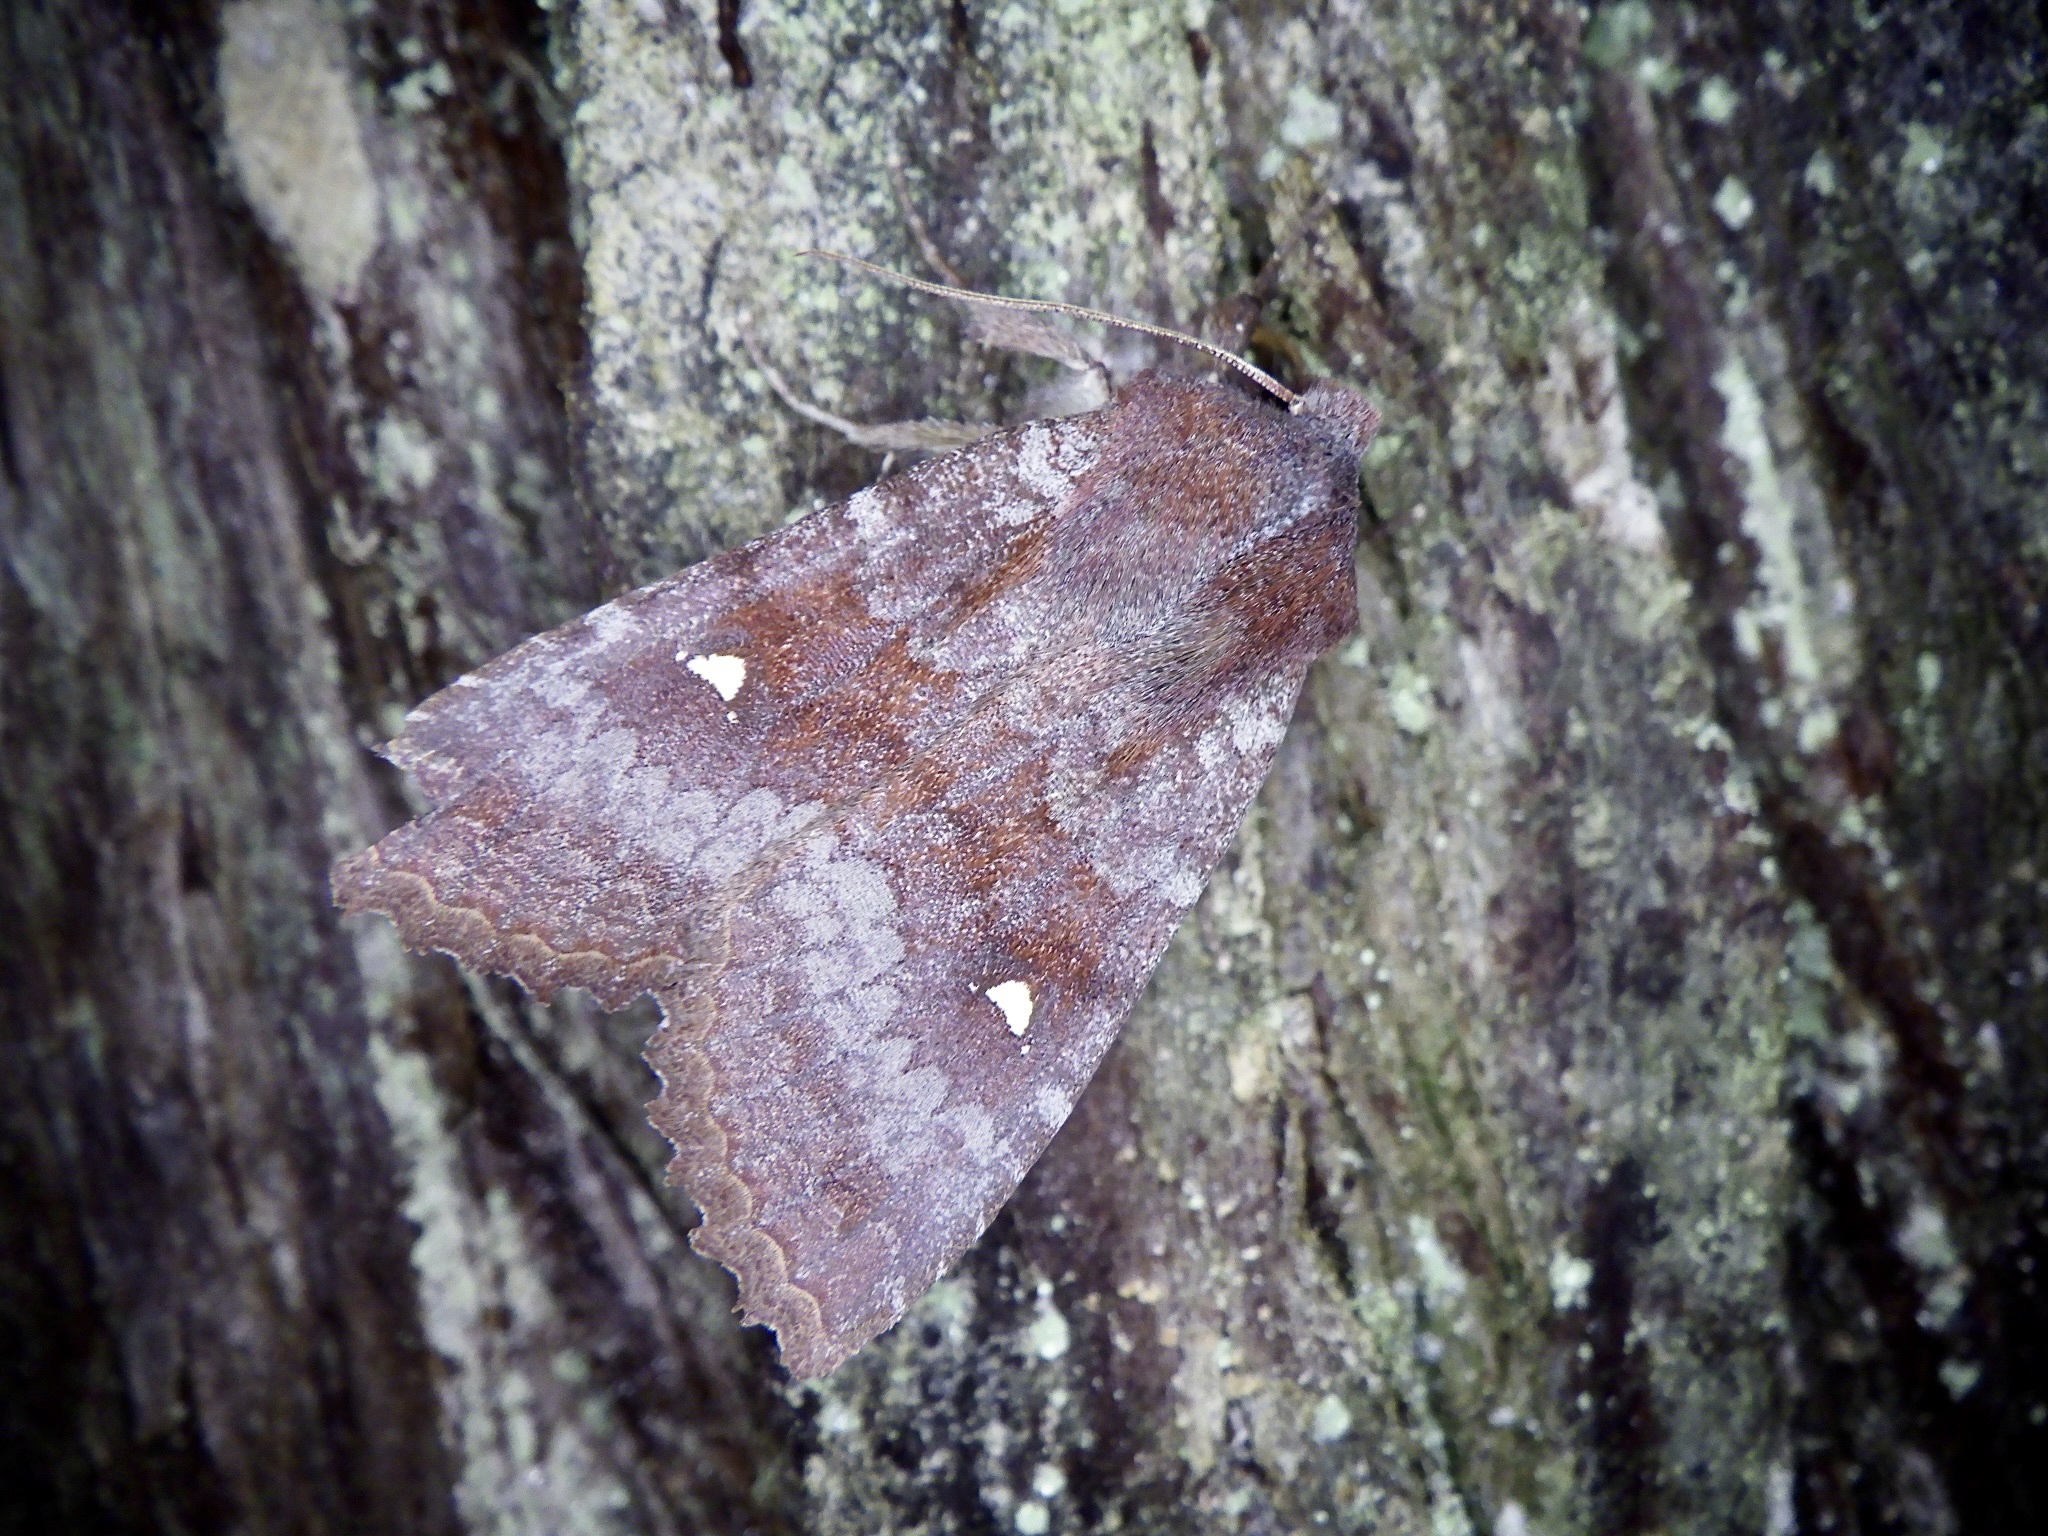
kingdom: Animalia
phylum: Arthropoda
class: Insecta
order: Lepidoptera
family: Noctuidae
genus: Eupsilia
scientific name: Eupsilia unipuncta
